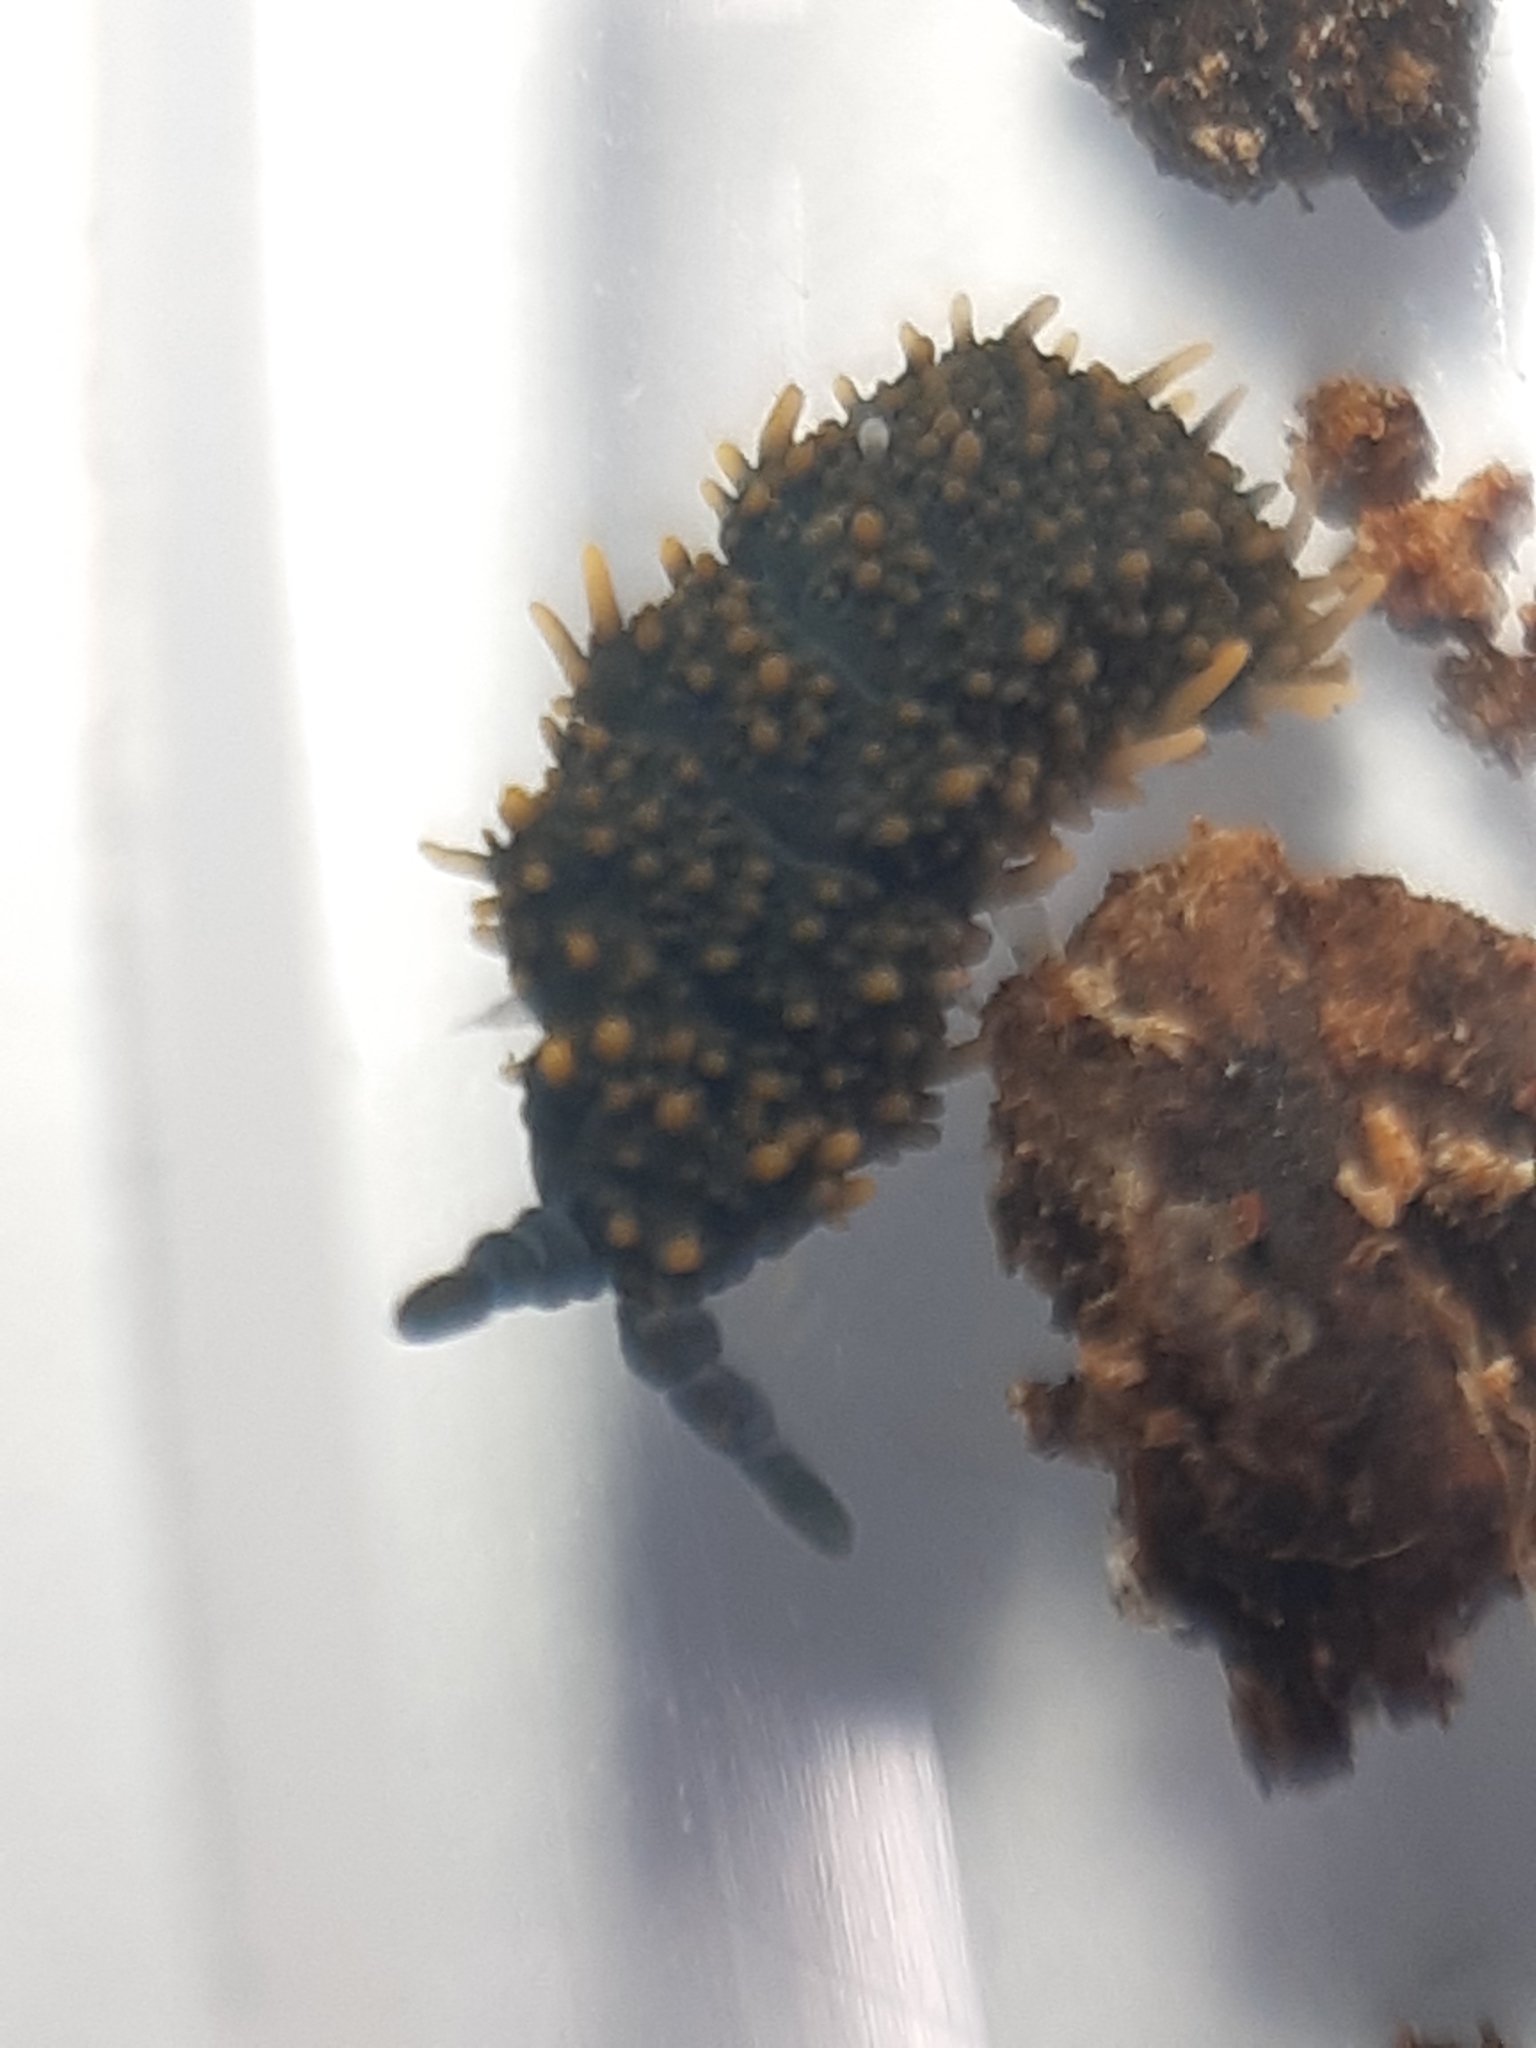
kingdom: Animalia
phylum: Arthropoda
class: Collembola
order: Poduromorpha
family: Neanuridae
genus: Holacanthella
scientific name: Holacanthella paucispinosa
